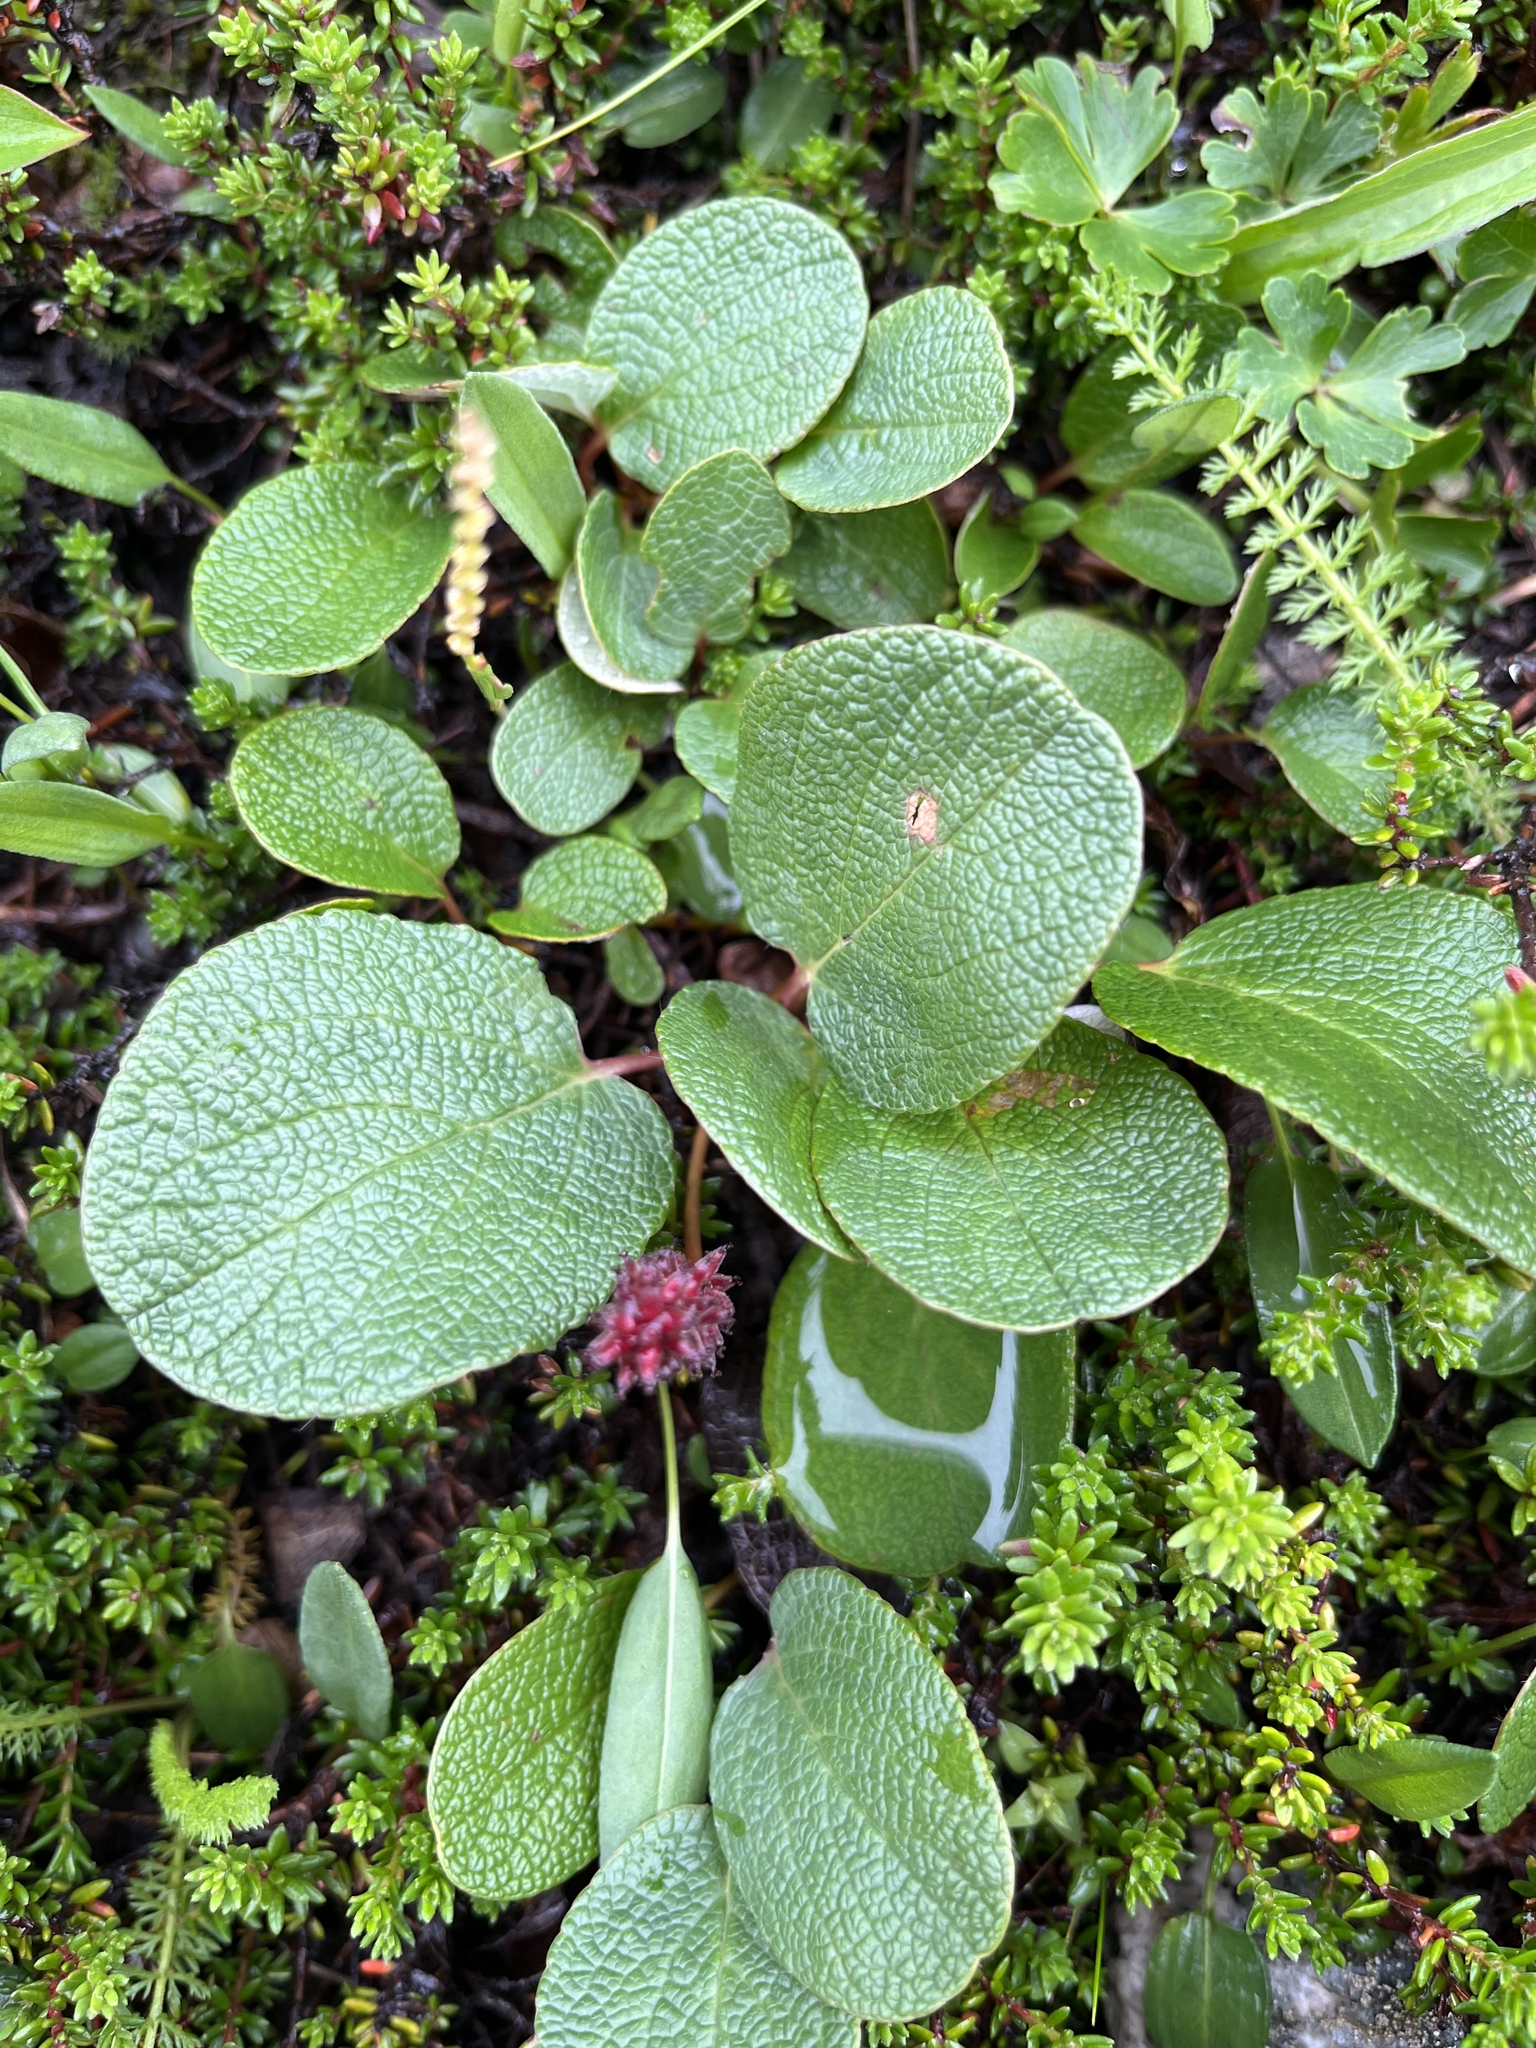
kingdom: Plantae
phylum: Tracheophyta
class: Magnoliopsida
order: Malpighiales
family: Salicaceae
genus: Salix
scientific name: Salix reticulata
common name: Net-leaved willow
